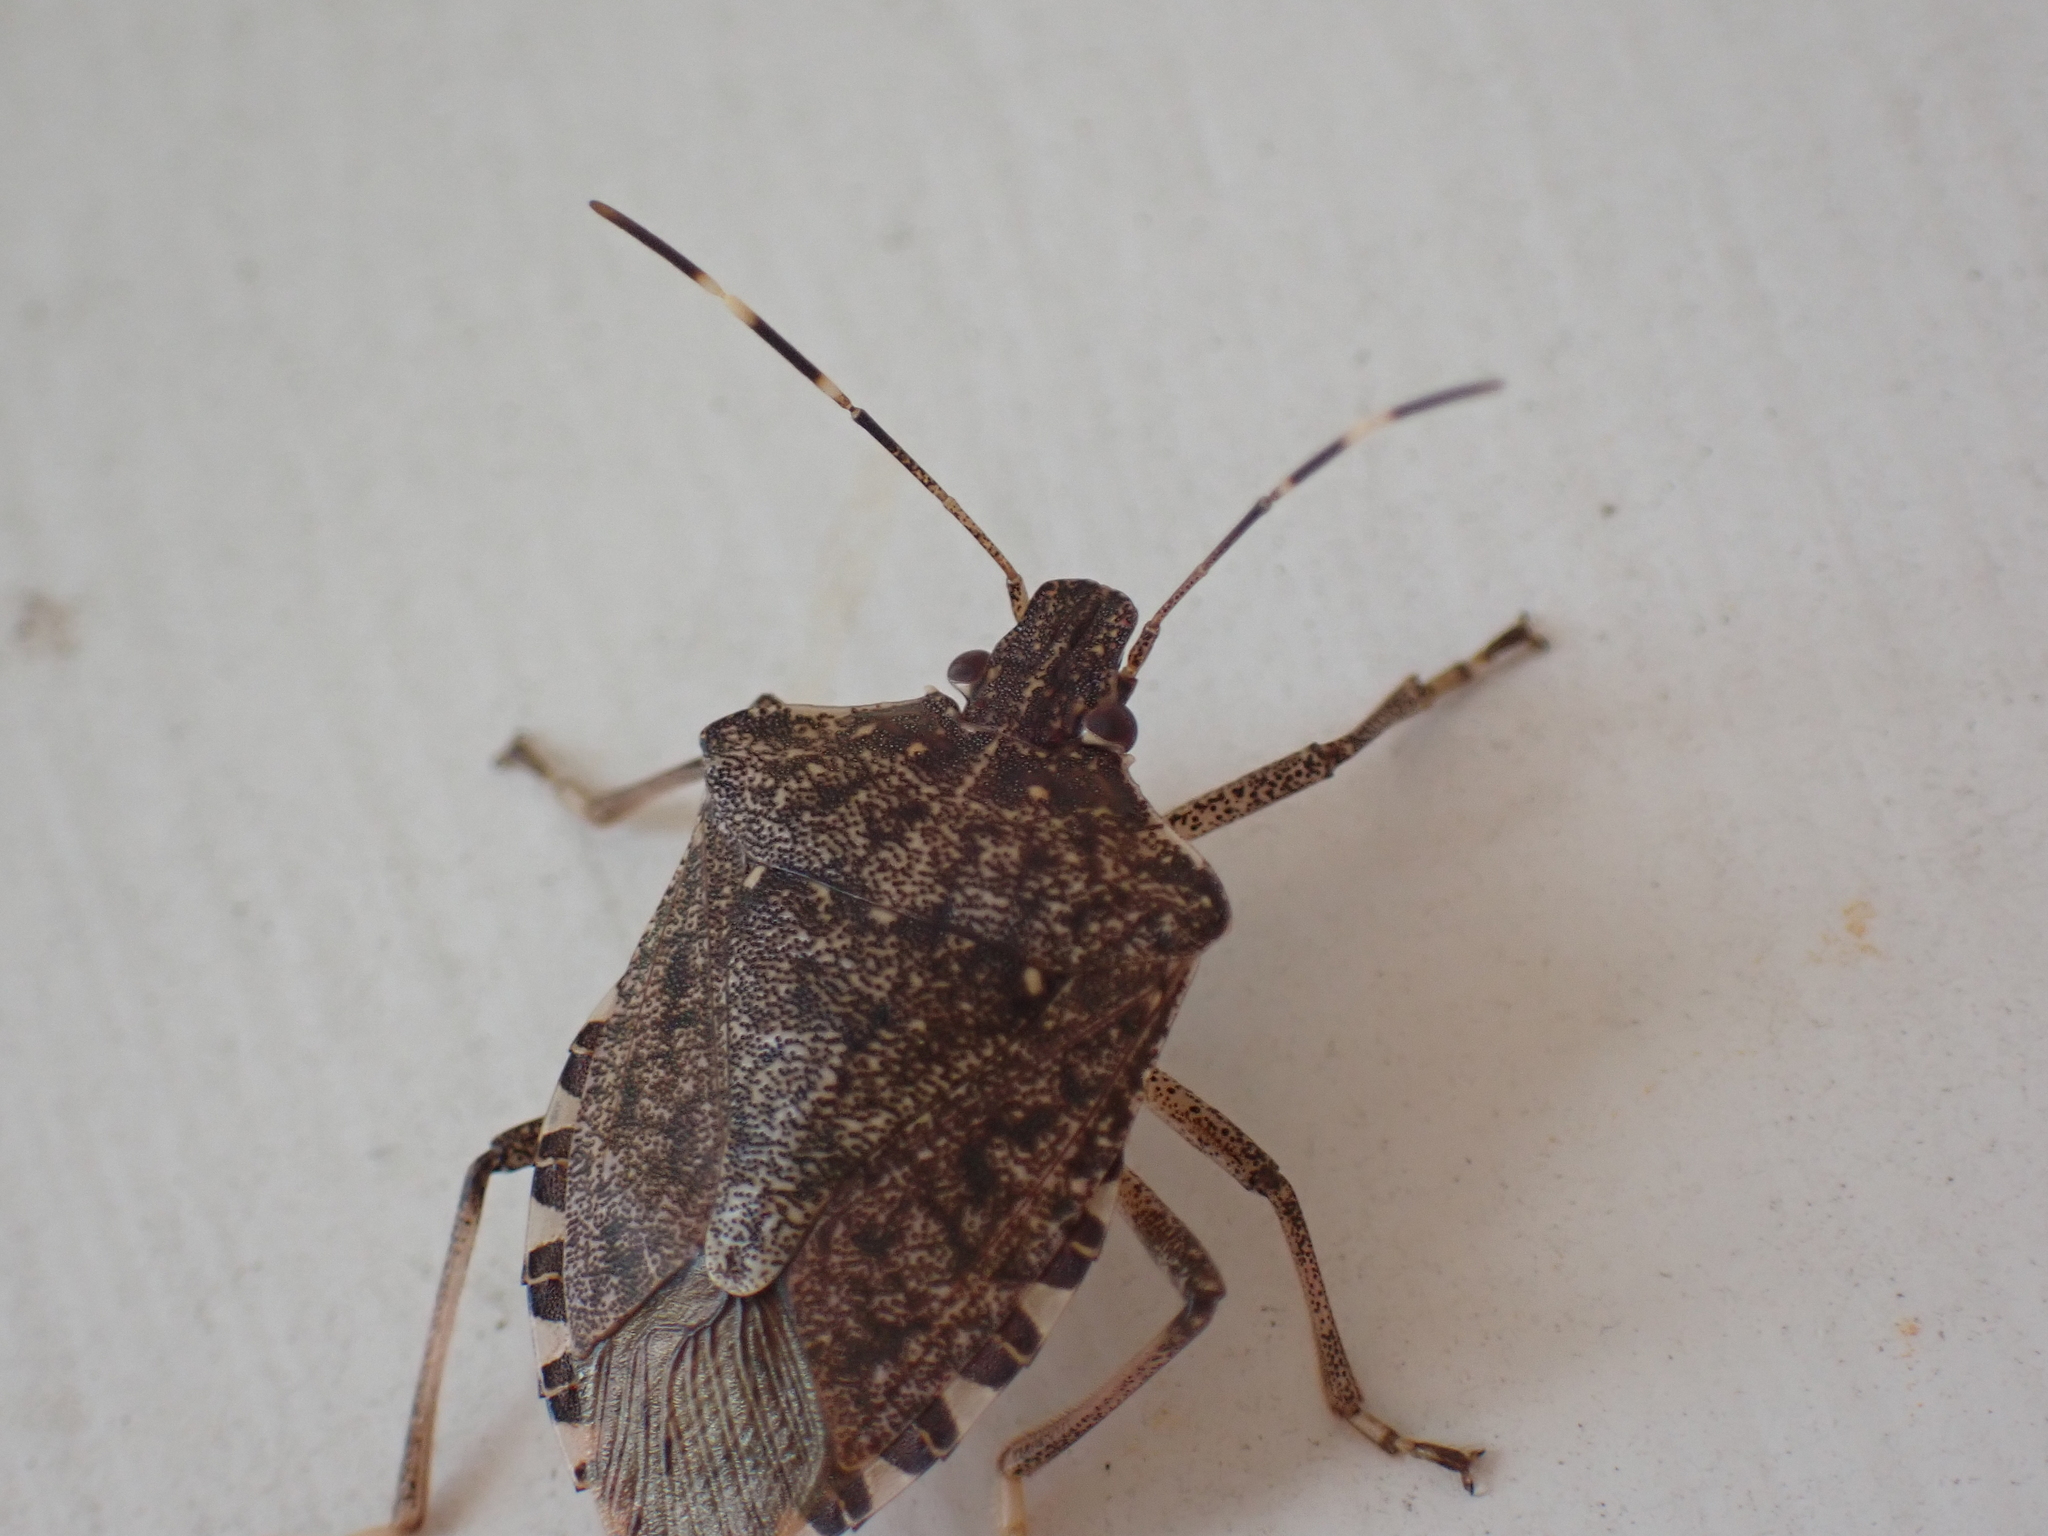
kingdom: Animalia
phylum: Arthropoda
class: Insecta
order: Hemiptera
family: Pentatomidae
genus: Halyomorpha
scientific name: Halyomorpha halys
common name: Brown marmorated stink bug
